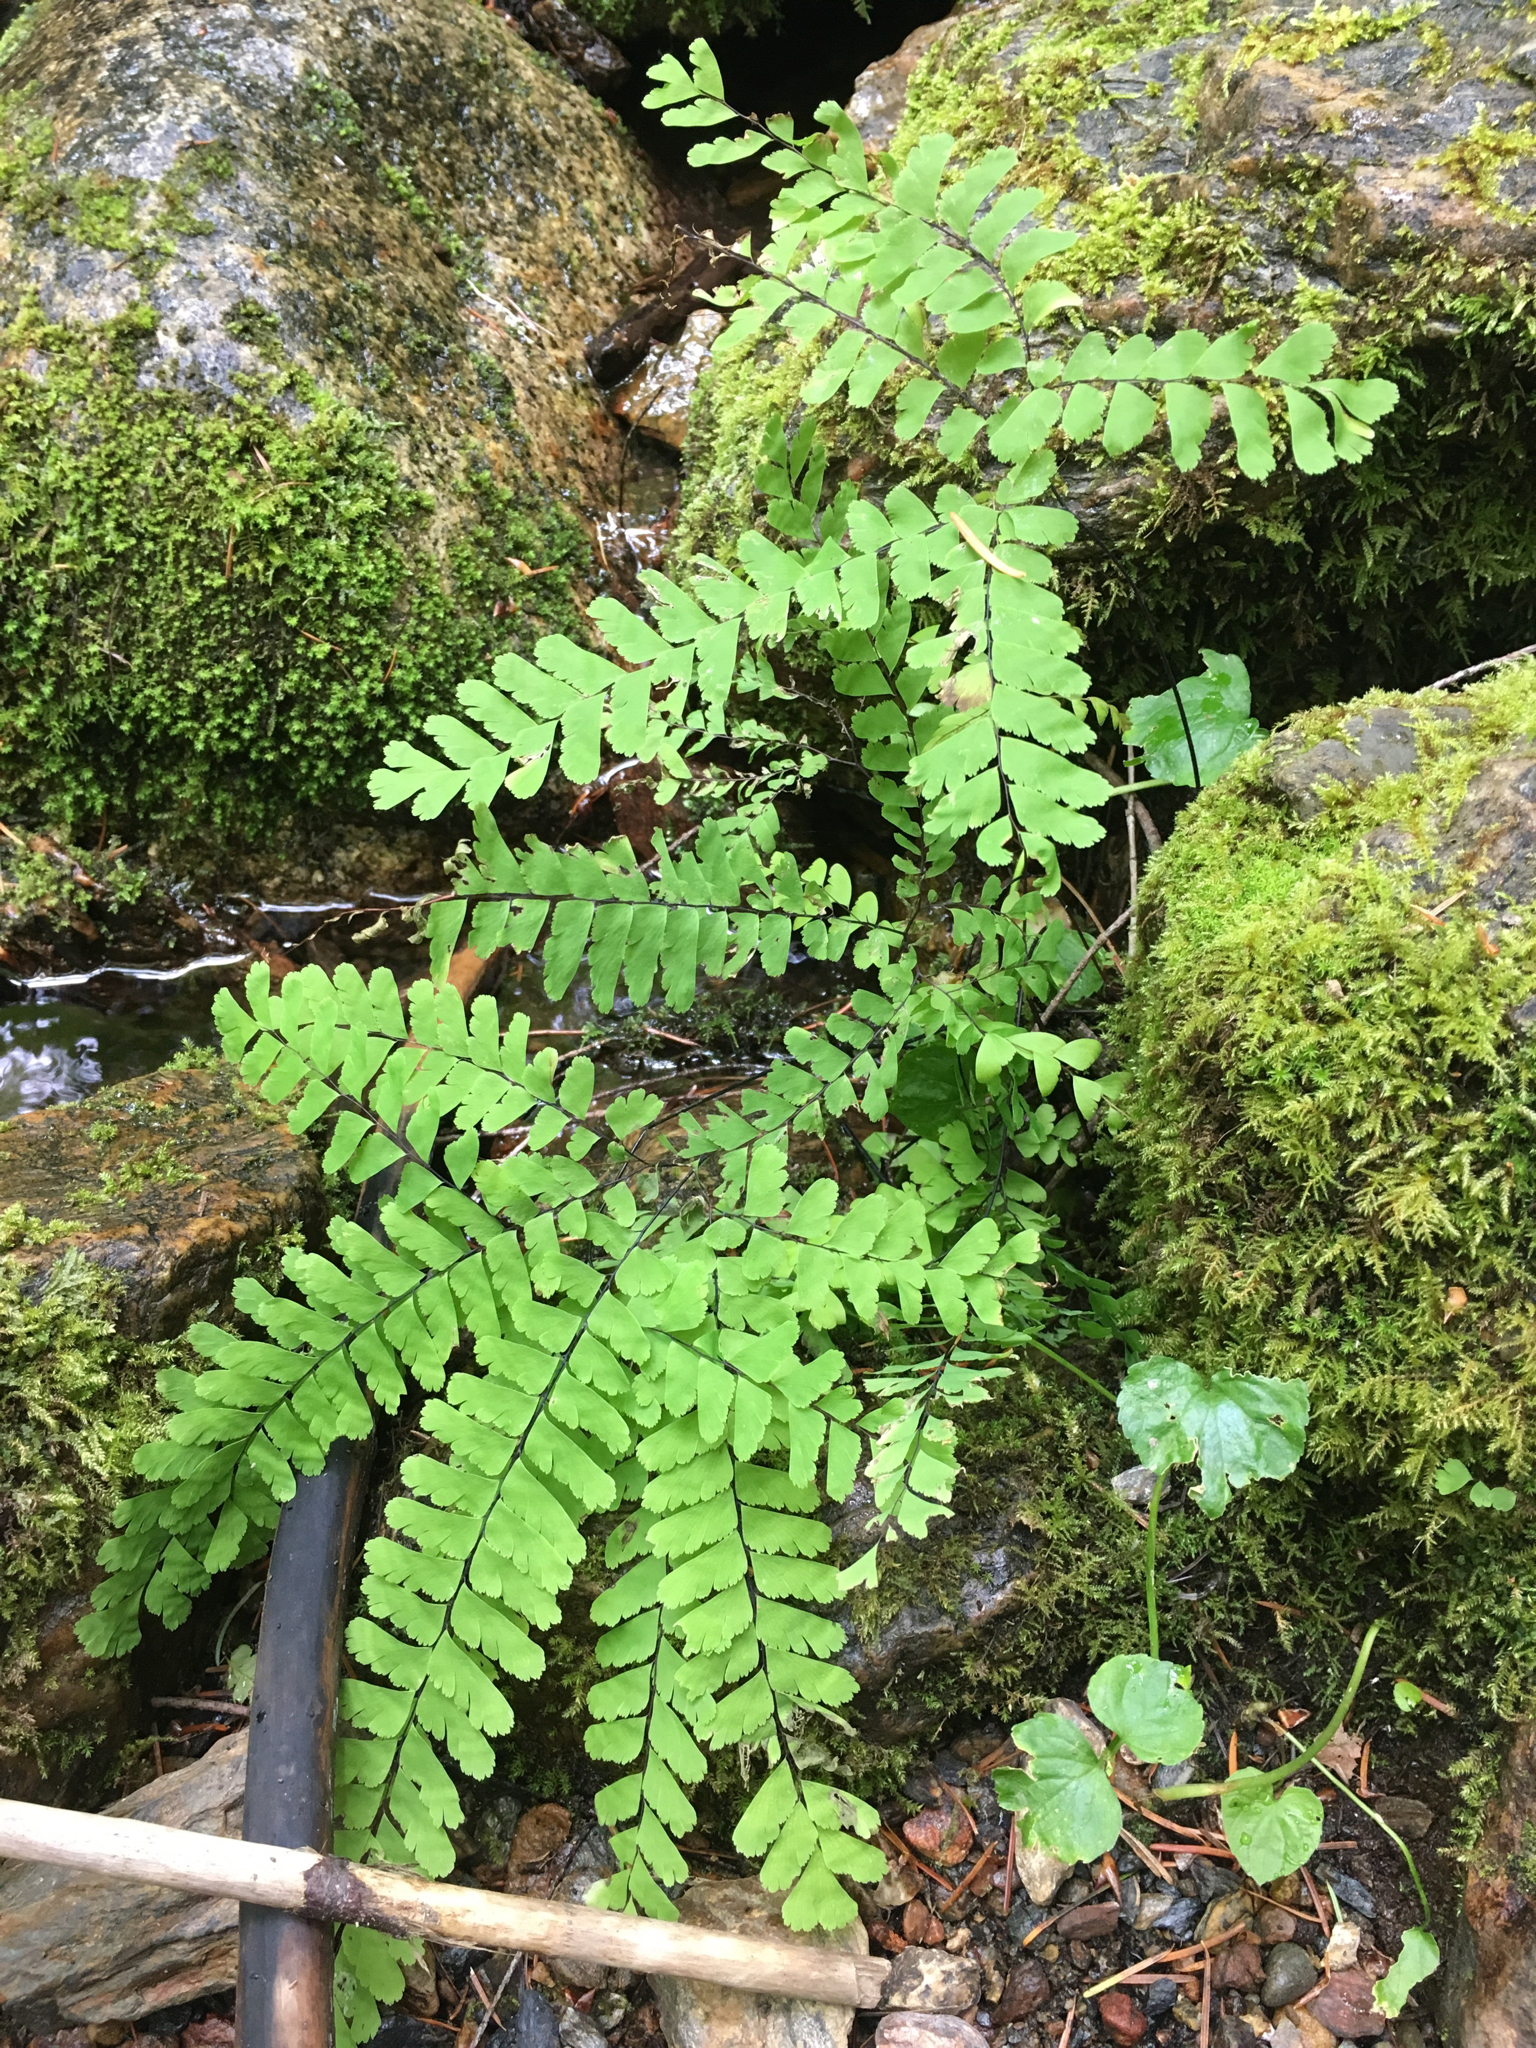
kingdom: Plantae
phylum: Tracheophyta
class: Polypodiopsida
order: Polypodiales
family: Pteridaceae
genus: Adiantum
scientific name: Adiantum aleuticum
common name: Aleutian maidenhair fern
